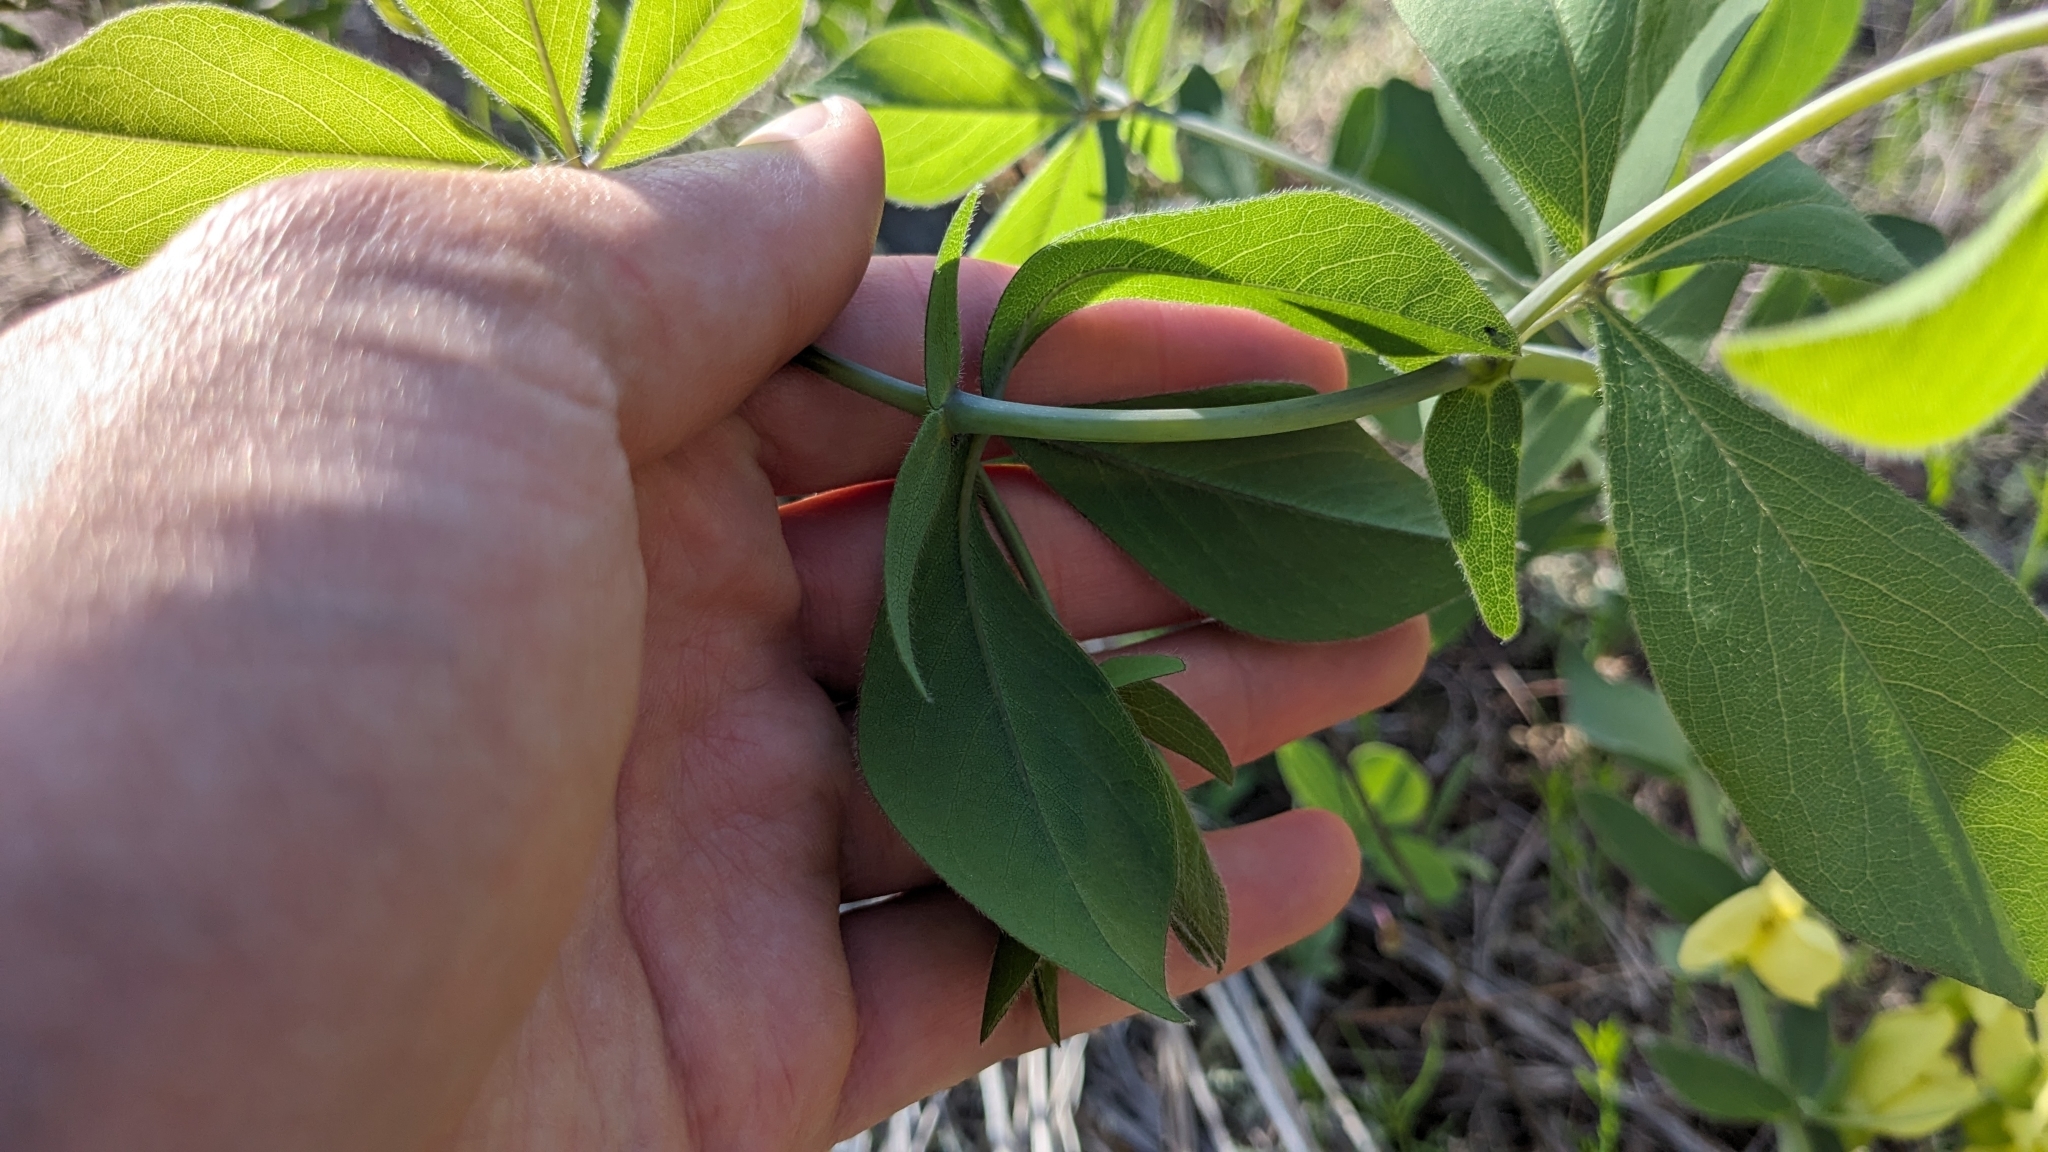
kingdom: Plantae
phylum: Tracheophyta
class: Magnoliopsida
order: Fabales
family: Fabaceae
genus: Baptisia
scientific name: Baptisia bracteata
